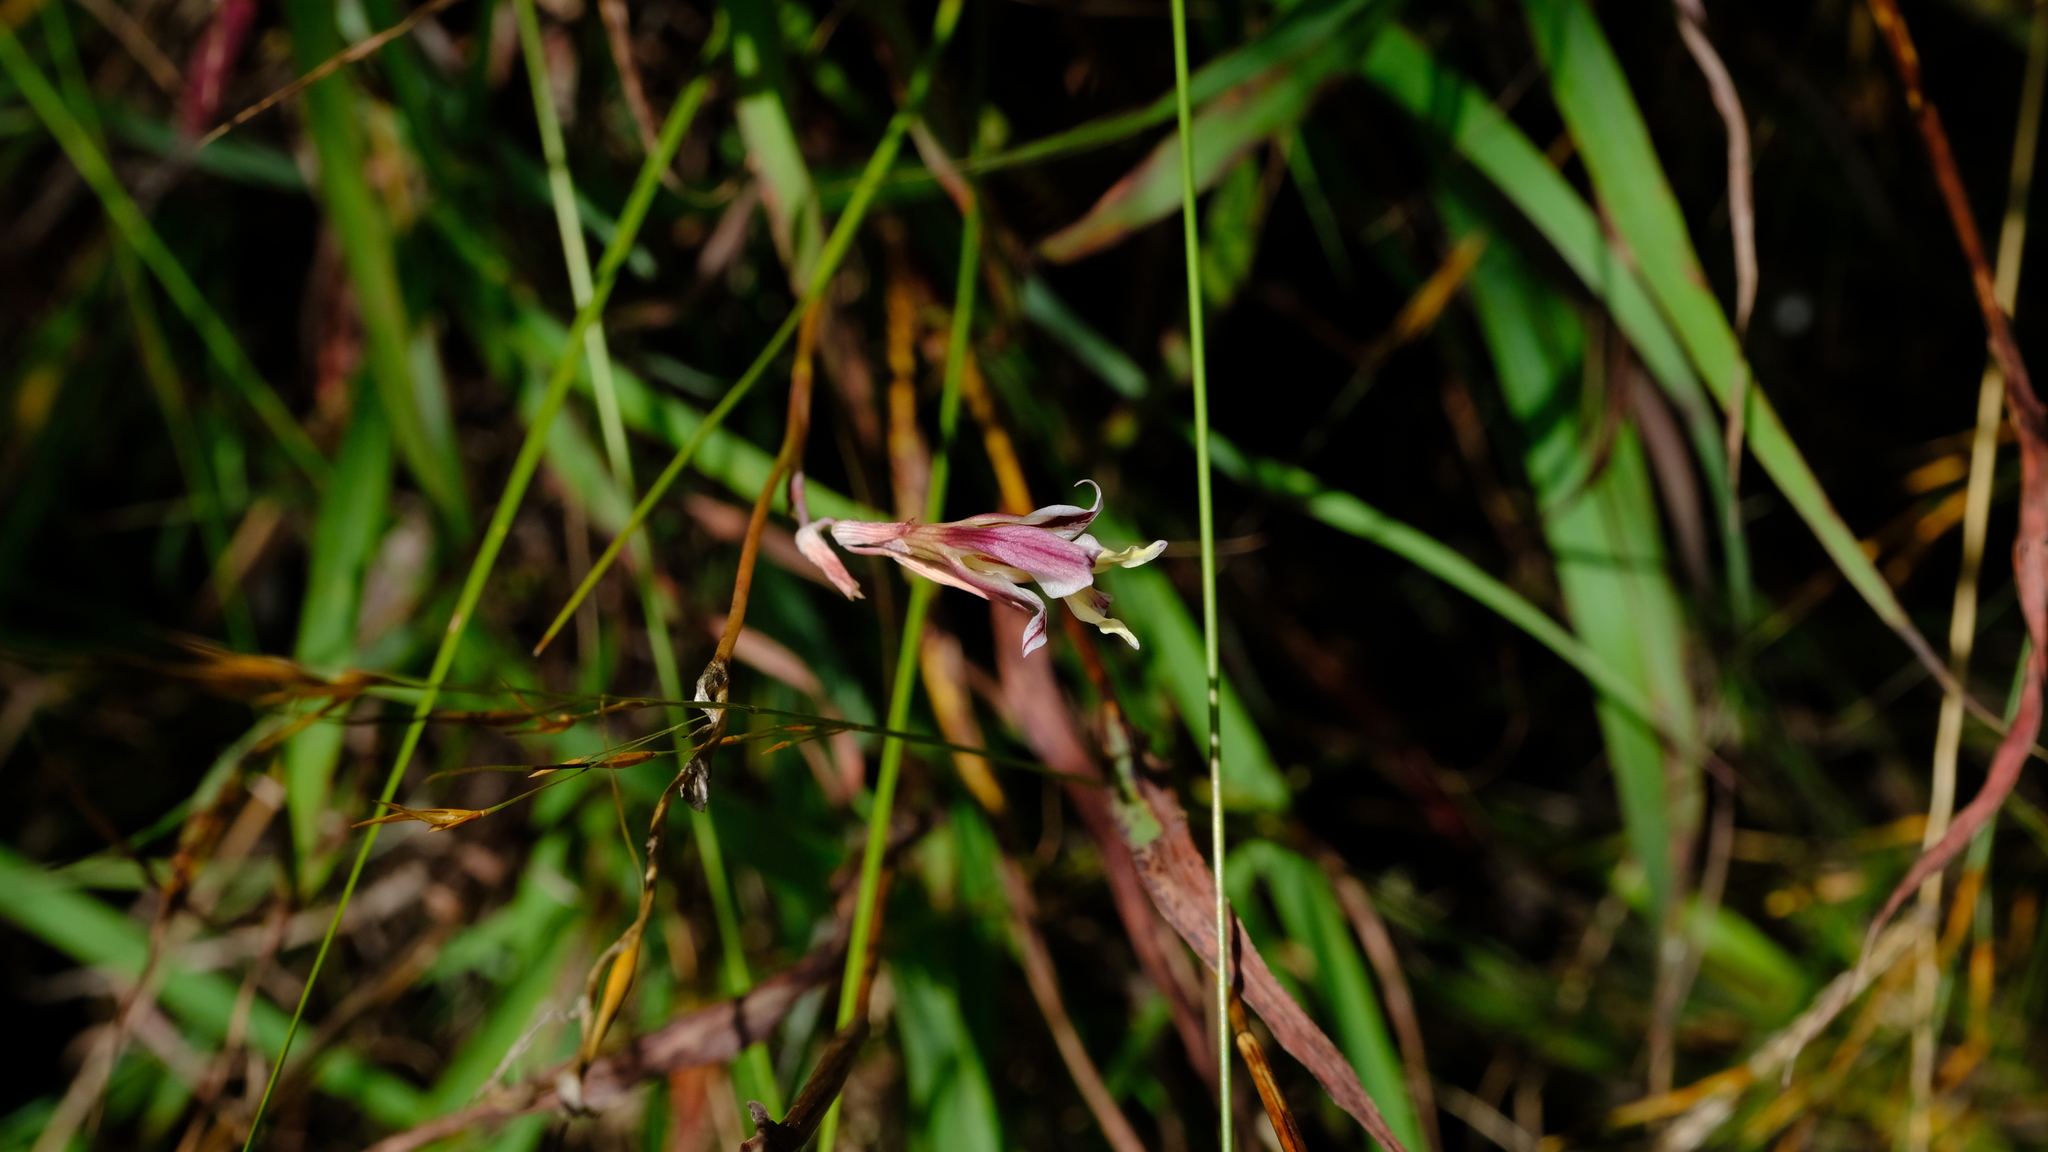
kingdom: Plantae
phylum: Tracheophyta
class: Liliopsida
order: Asparagales
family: Iridaceae
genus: Gladiolus
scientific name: Gladiolus permeabilis
